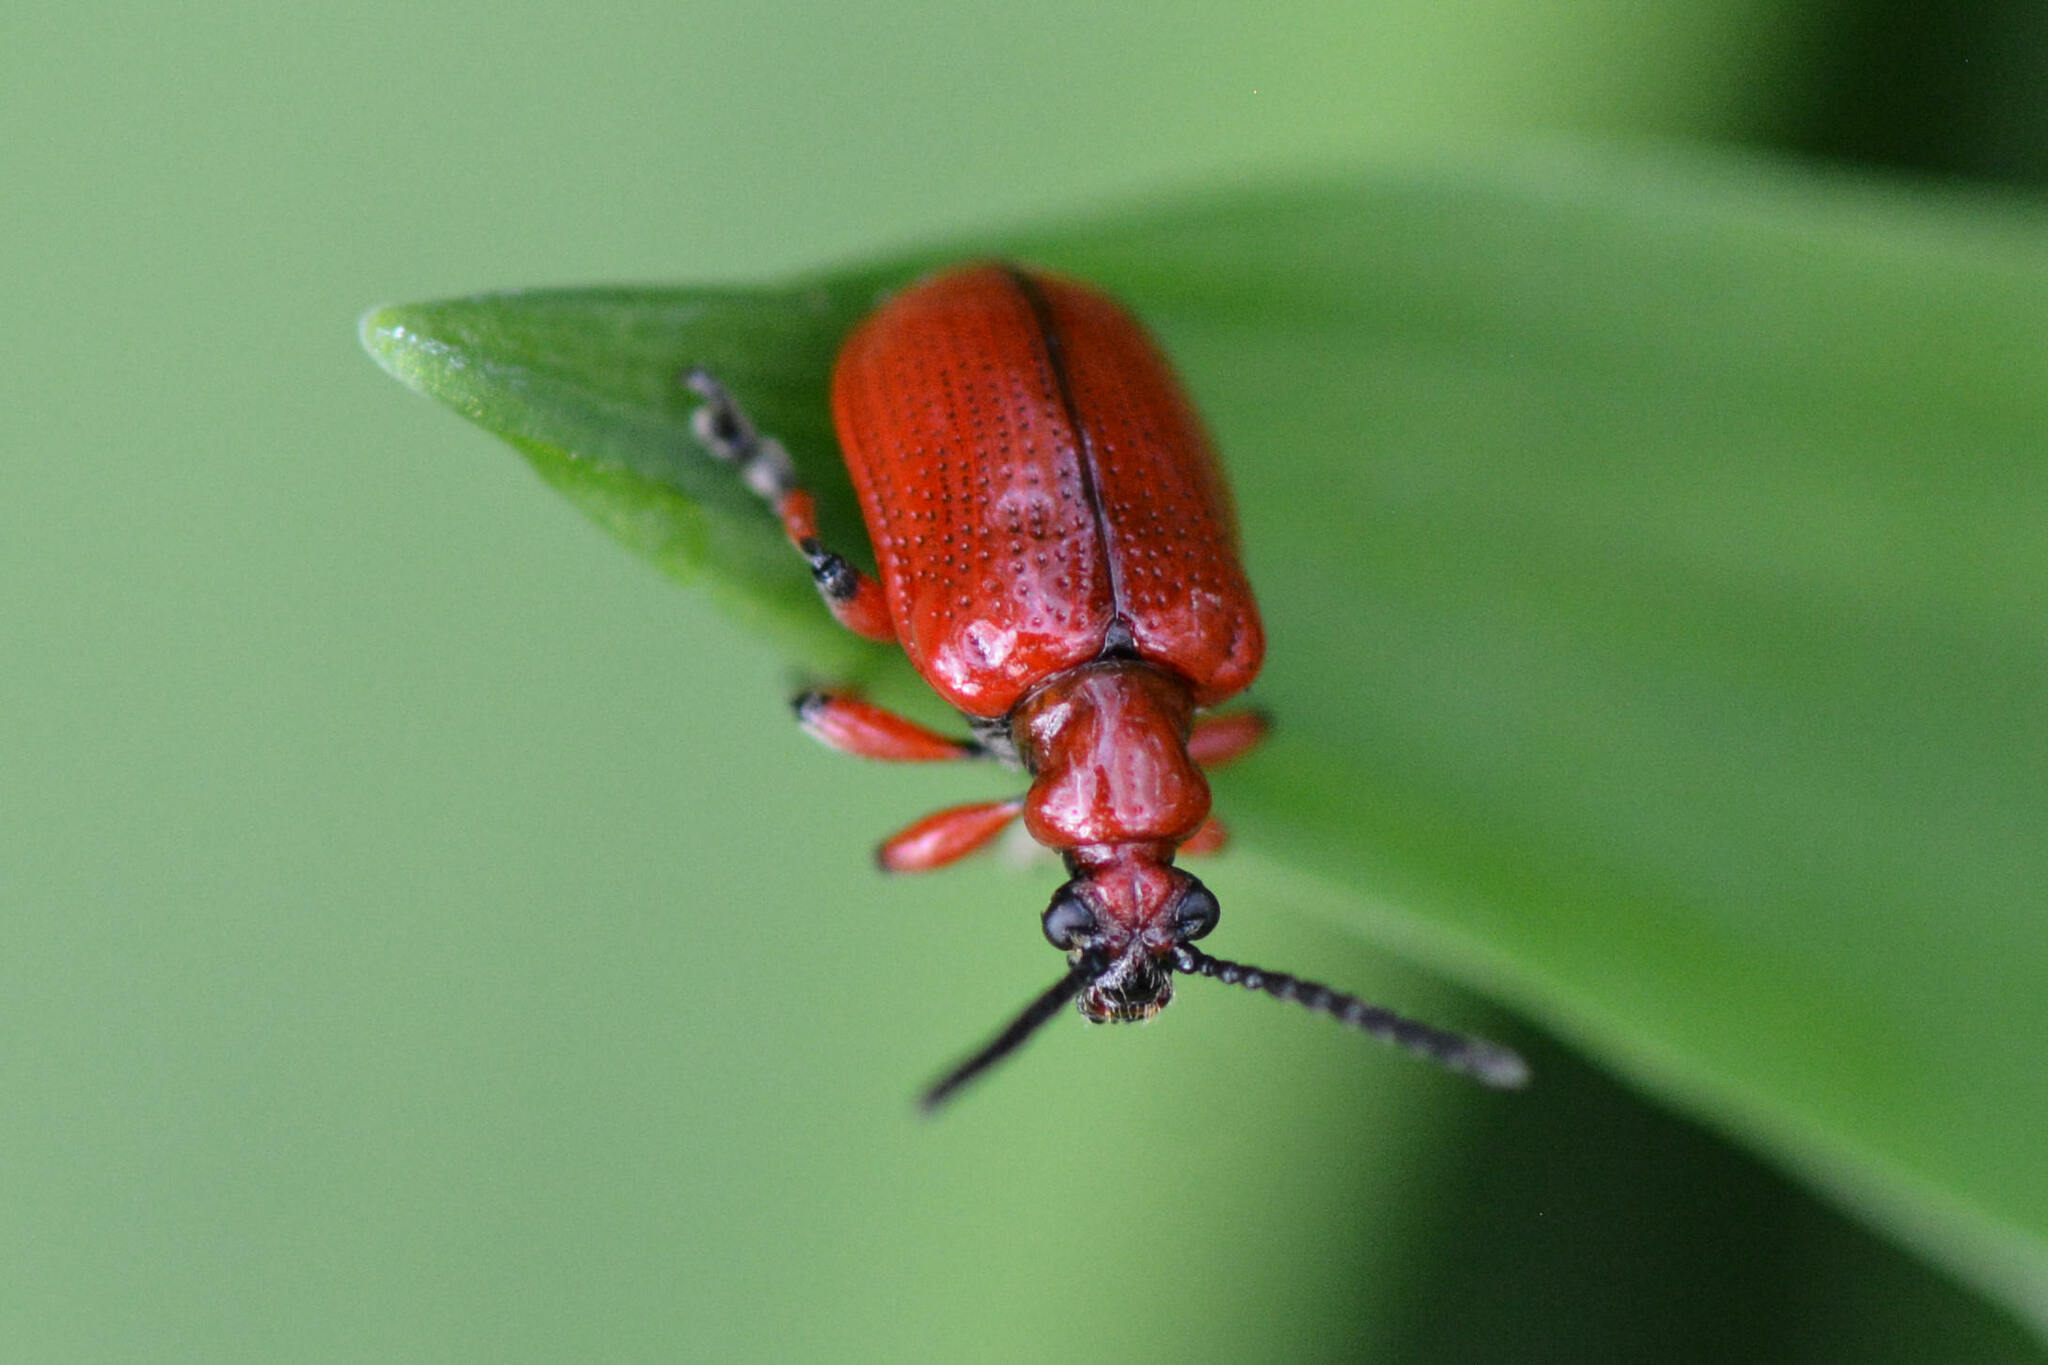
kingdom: Animalia
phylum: Arthropoda
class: Insecta
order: Coleoptera
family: Chrysomelidae
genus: Lilioceris
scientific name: Lilioceris merdigera
